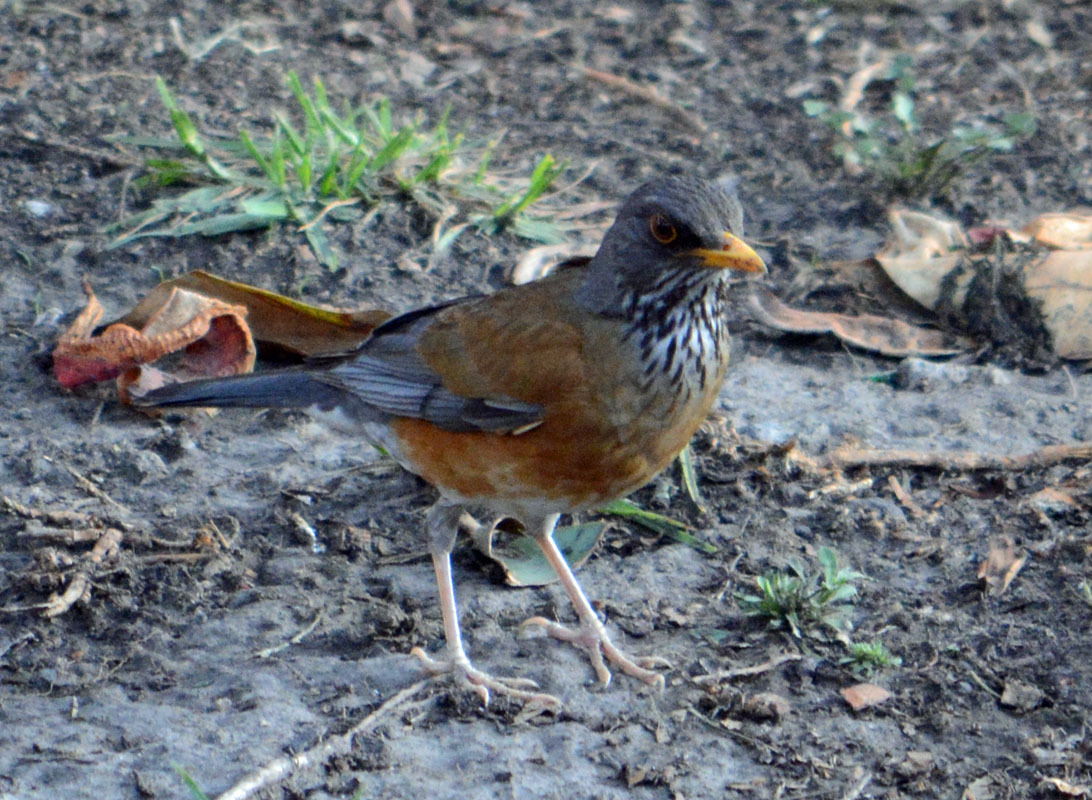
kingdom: Animalia
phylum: Chordata
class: Aves
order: Passeriformes
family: Turdidae
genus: Turdus
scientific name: Turdus rufopalliatus
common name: Rufous-backed robin
